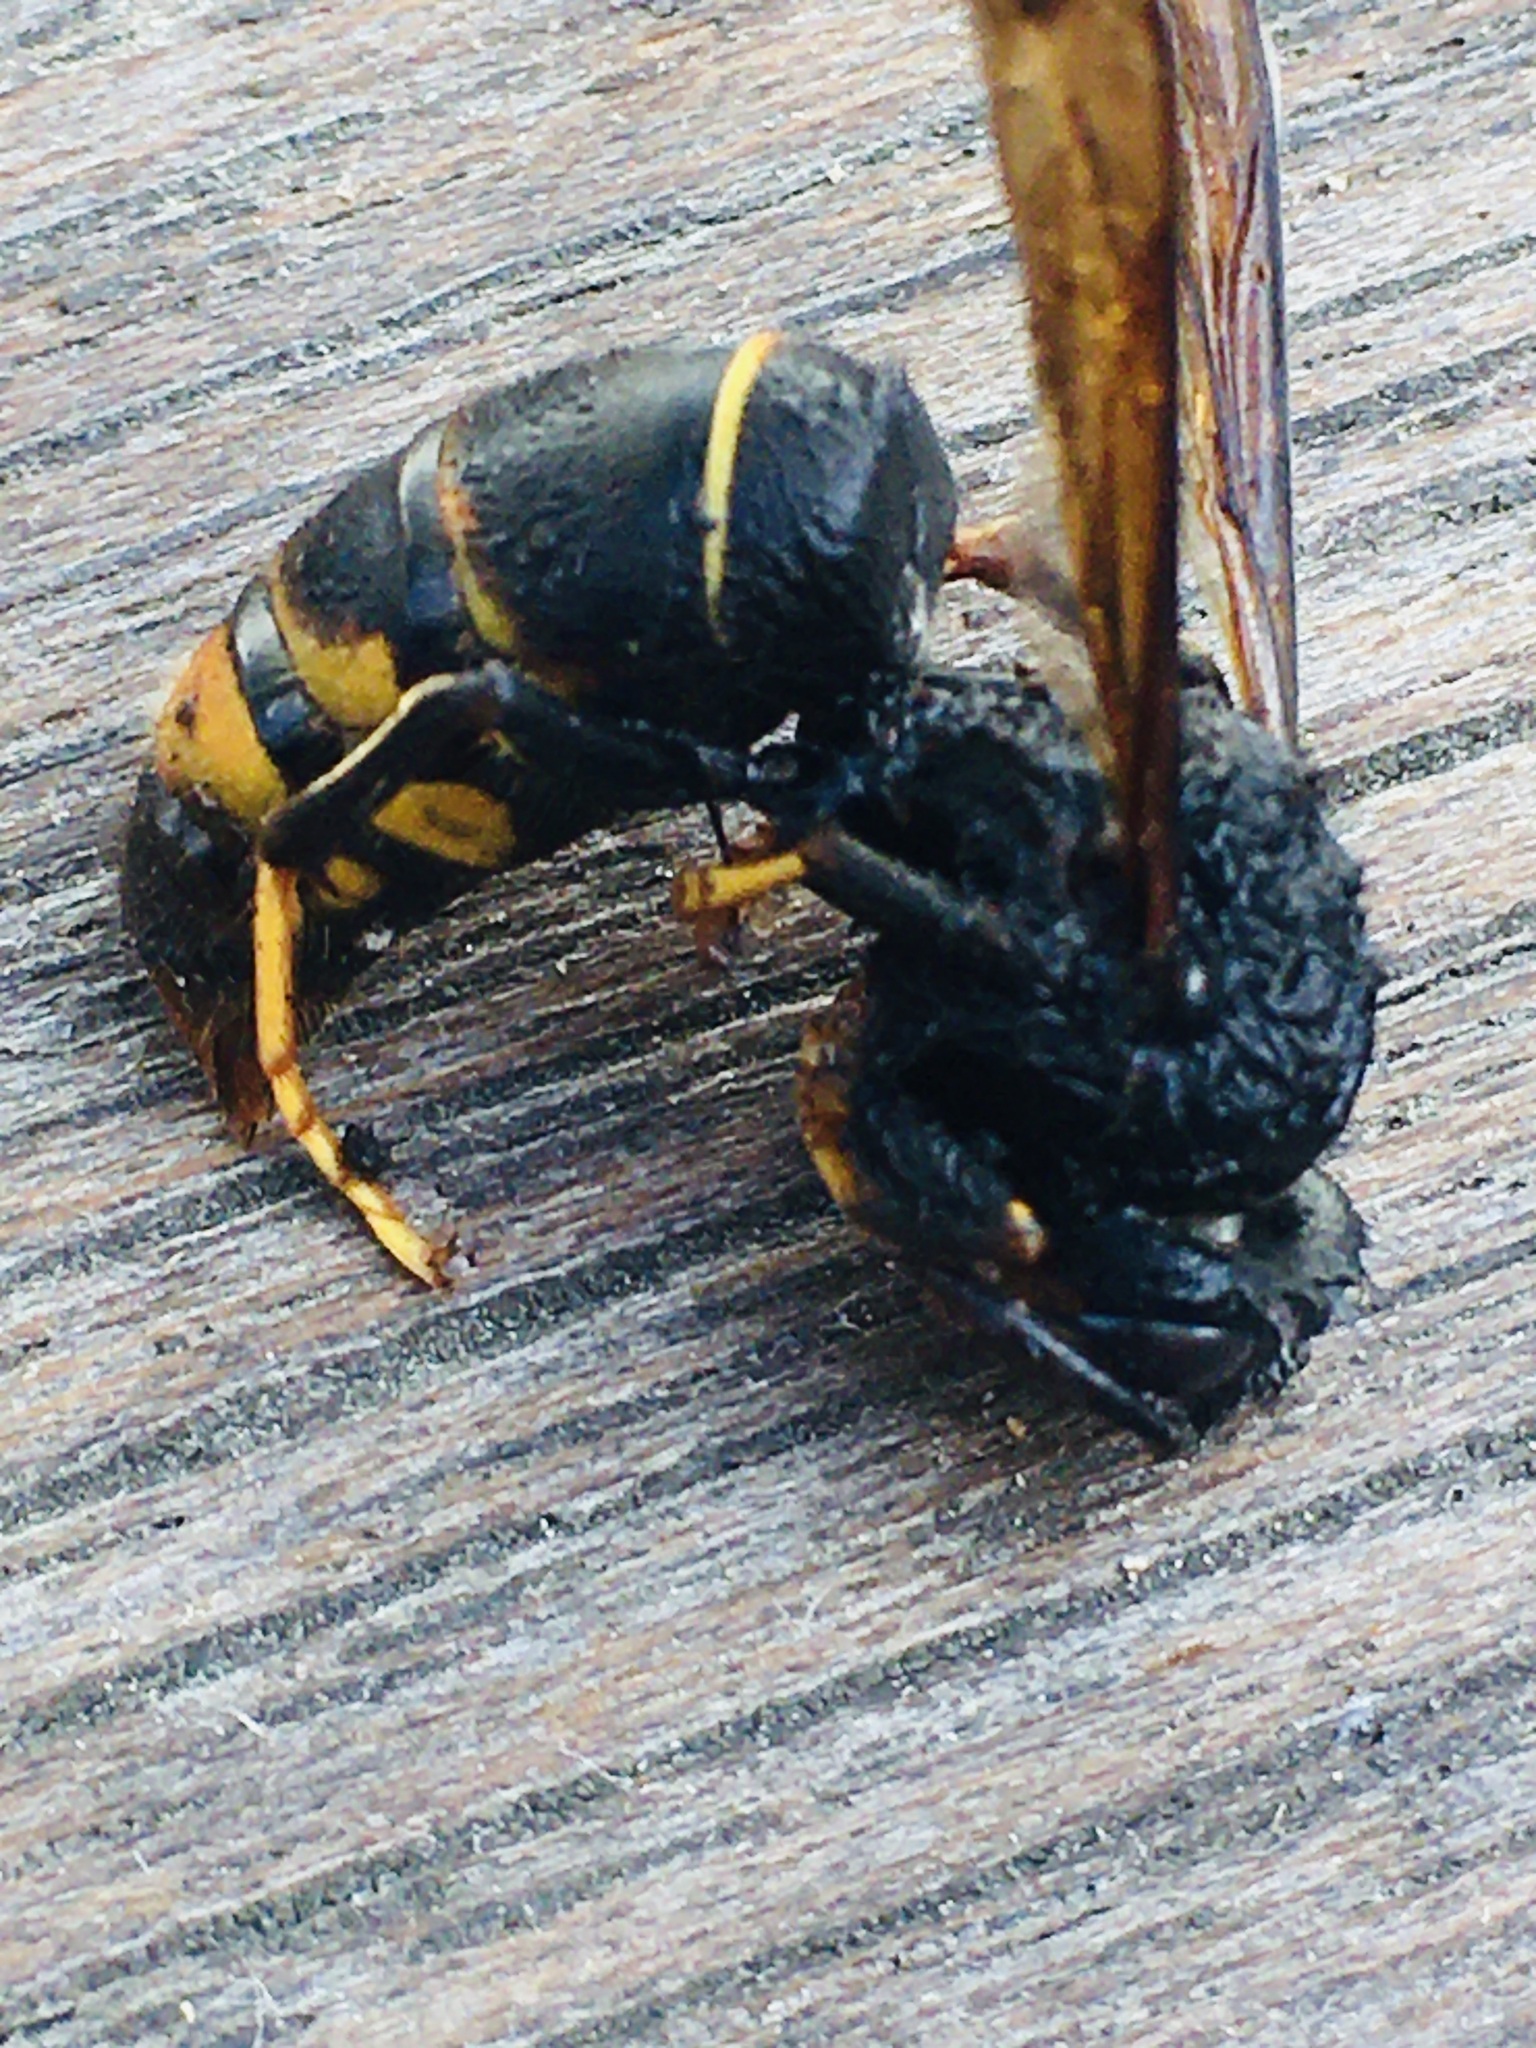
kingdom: Animalia
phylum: Arthropoda
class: Insecta
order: Hymenoptera
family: Vespidae
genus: Vespa
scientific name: Vespa velutina
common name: Asian hornet
